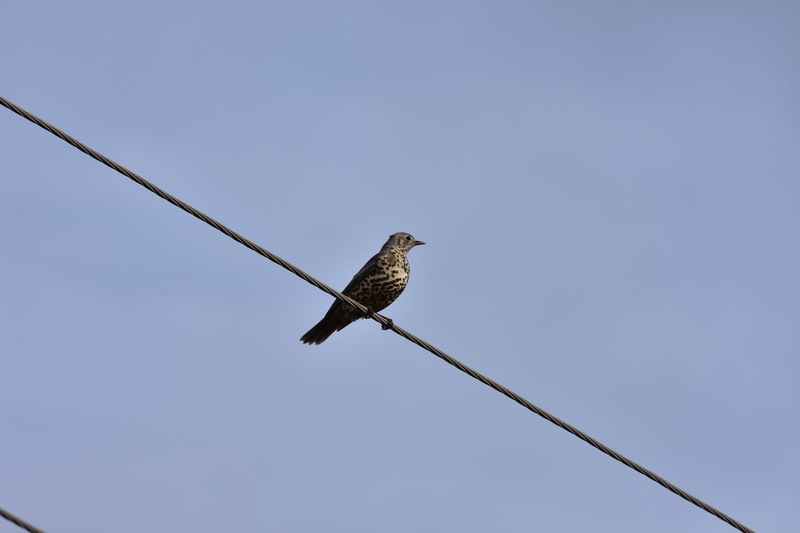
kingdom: Animalia
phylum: Chordata
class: Aves
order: Passeriformes
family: Turdidae
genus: Turdus
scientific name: Turdus viscivorus
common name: Mistle thrush
